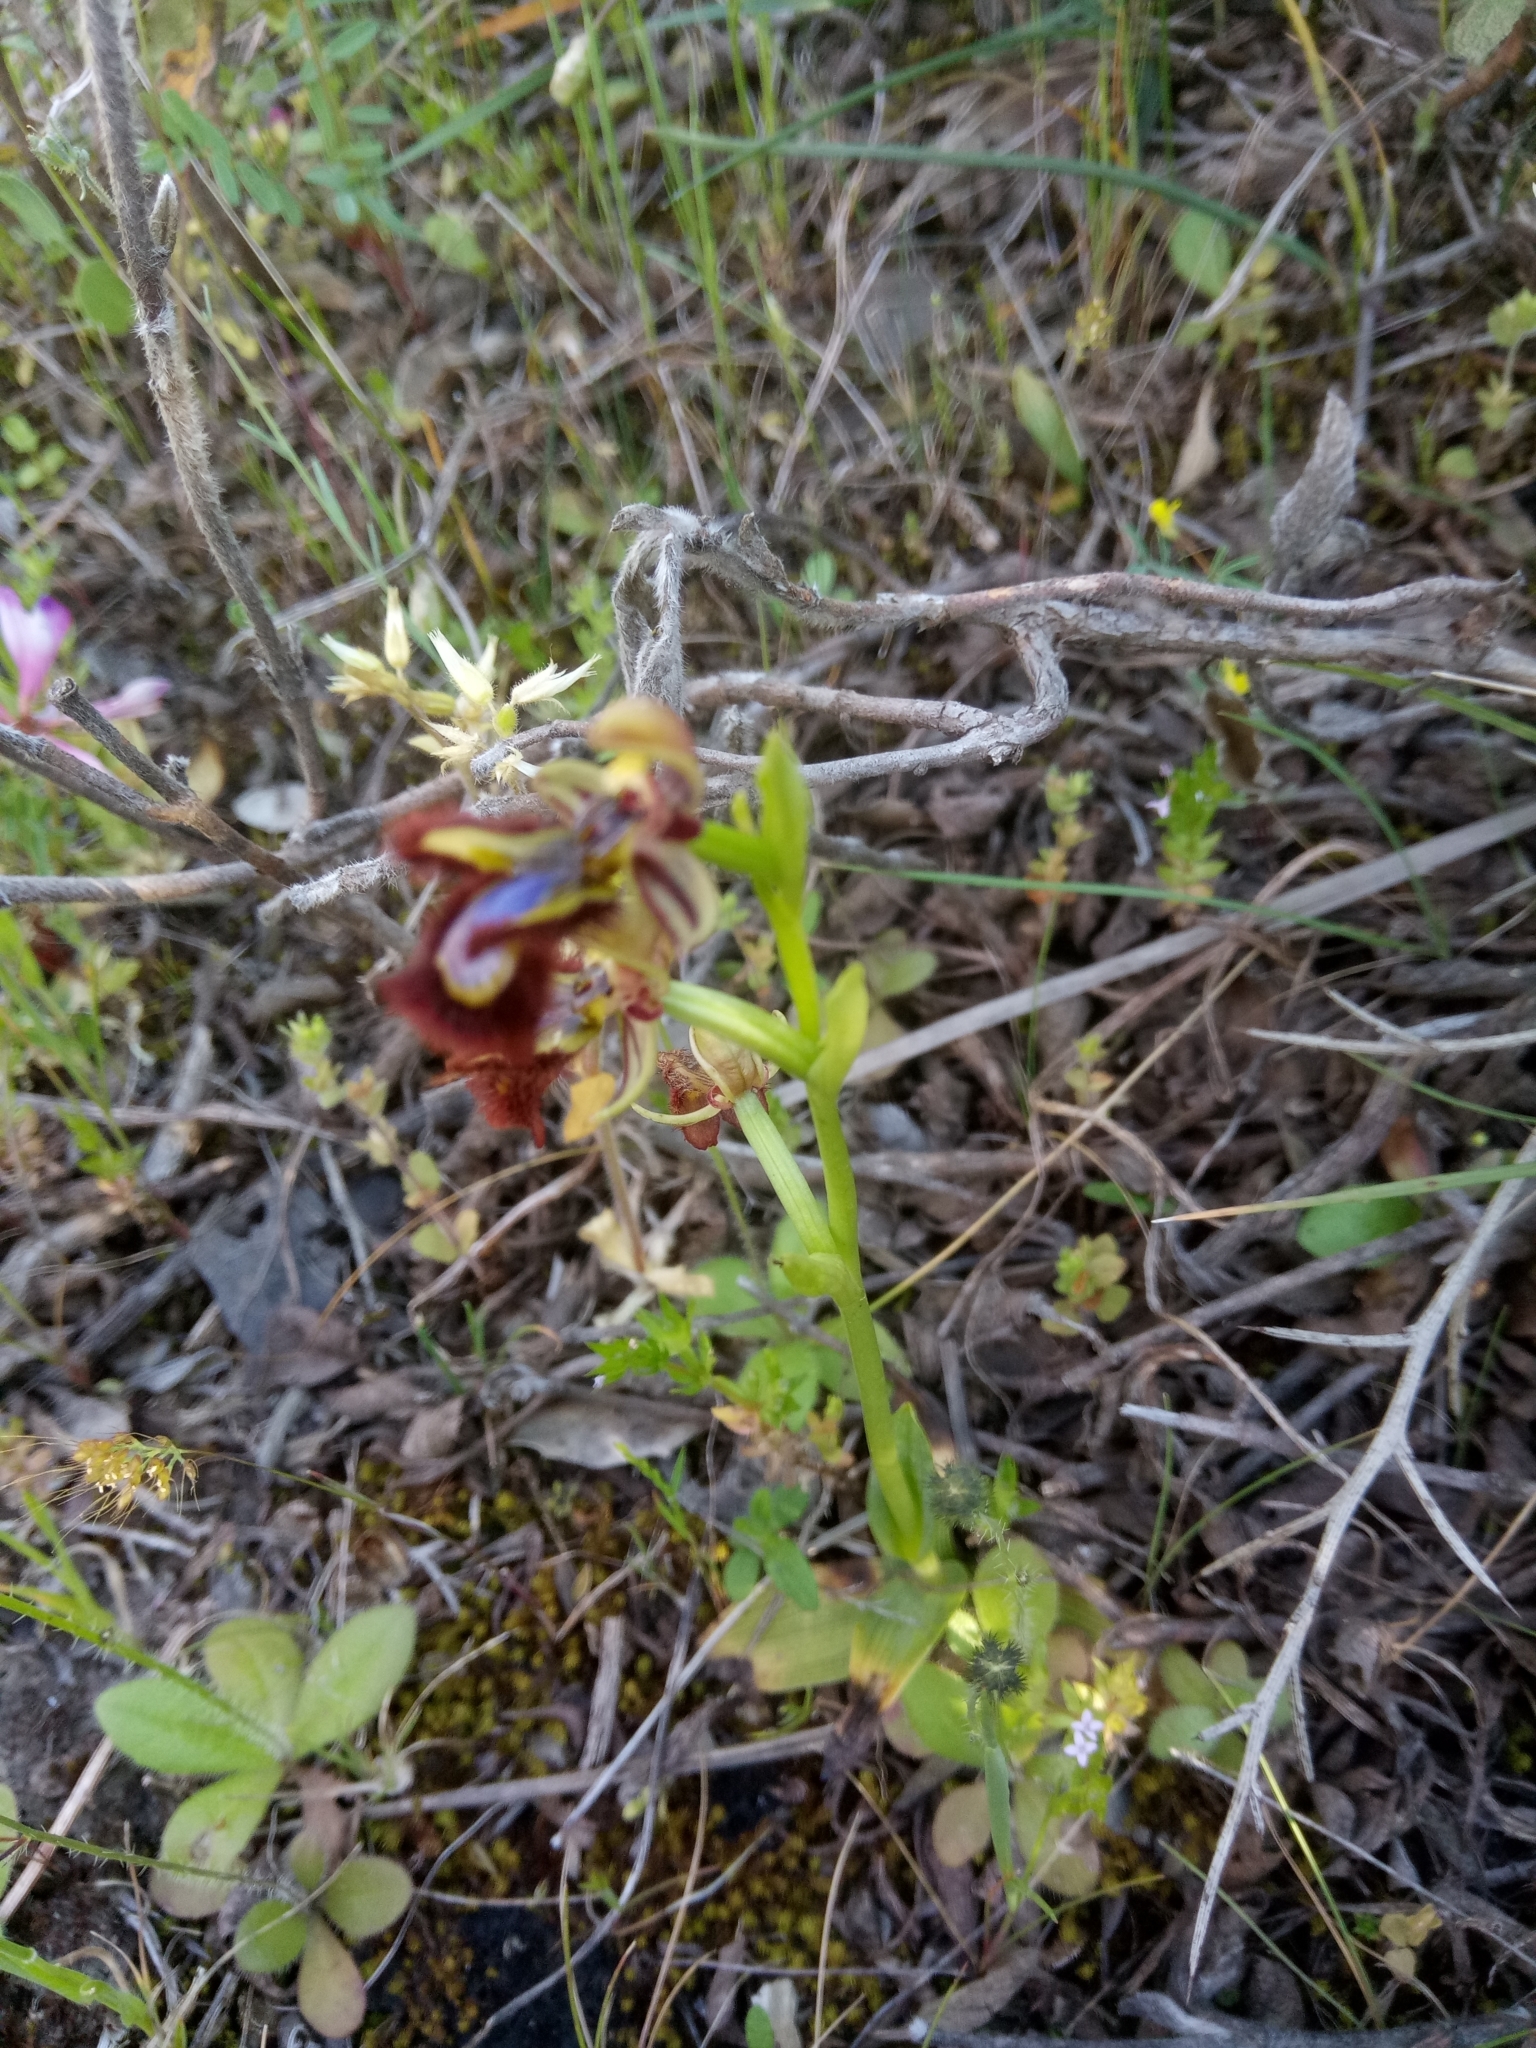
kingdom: Plantae
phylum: Tracheophyta
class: Liliopsida
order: Asparagales
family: Orchidaceae
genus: Ophrys
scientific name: Ophrys speculum
